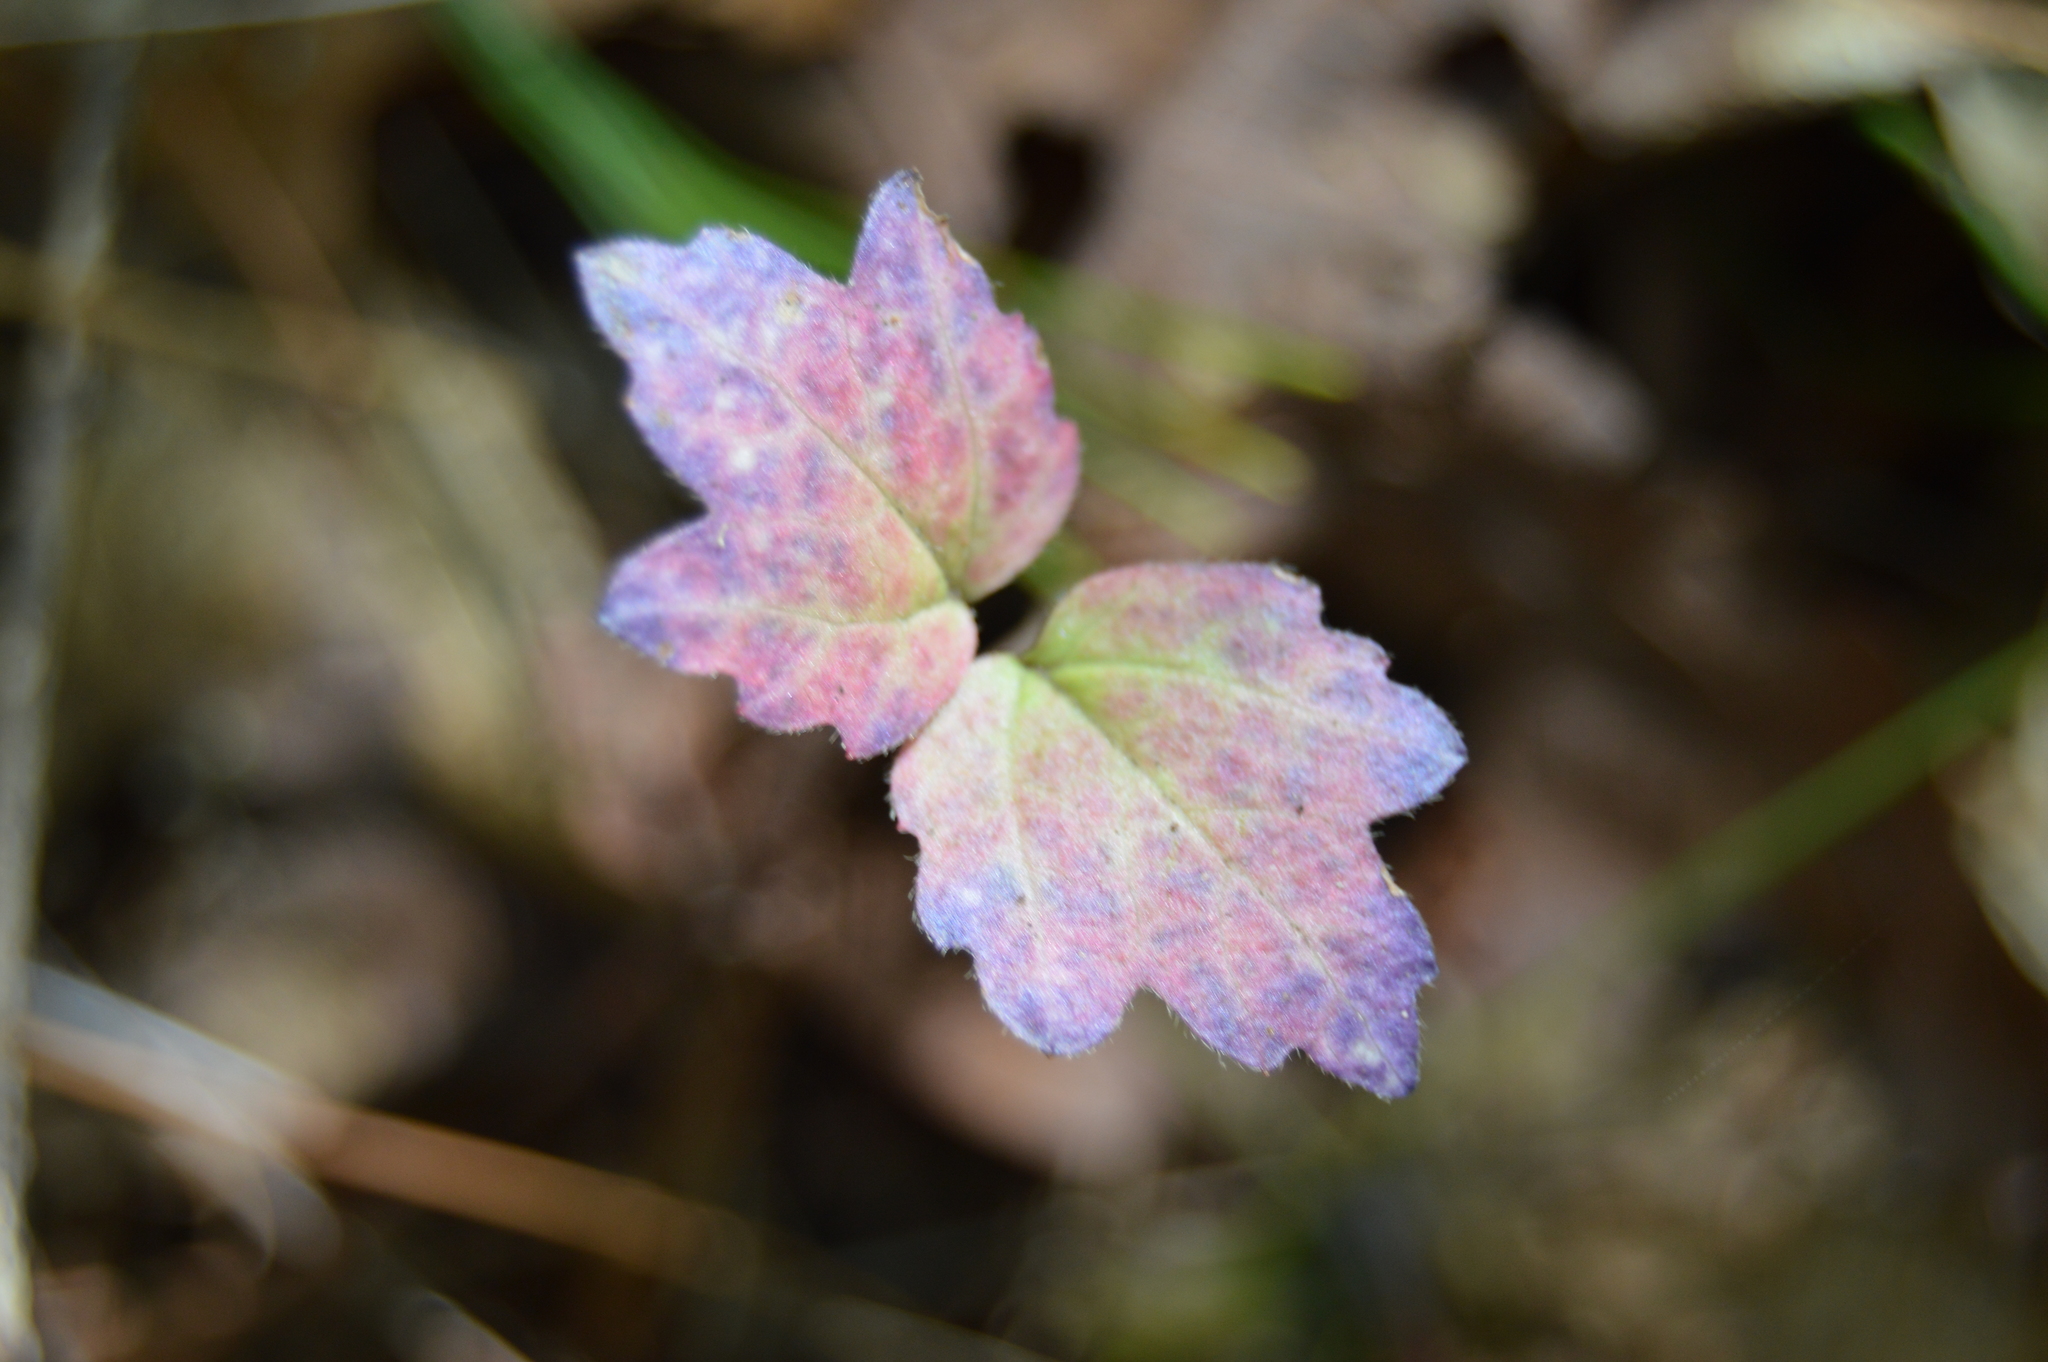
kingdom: Plantae
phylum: Tracheophyta
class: Magnoliopsida
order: Dipsacales
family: Viburnaceae
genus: Viburnum
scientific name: Viburnum acerifolium
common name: Dockmackie
